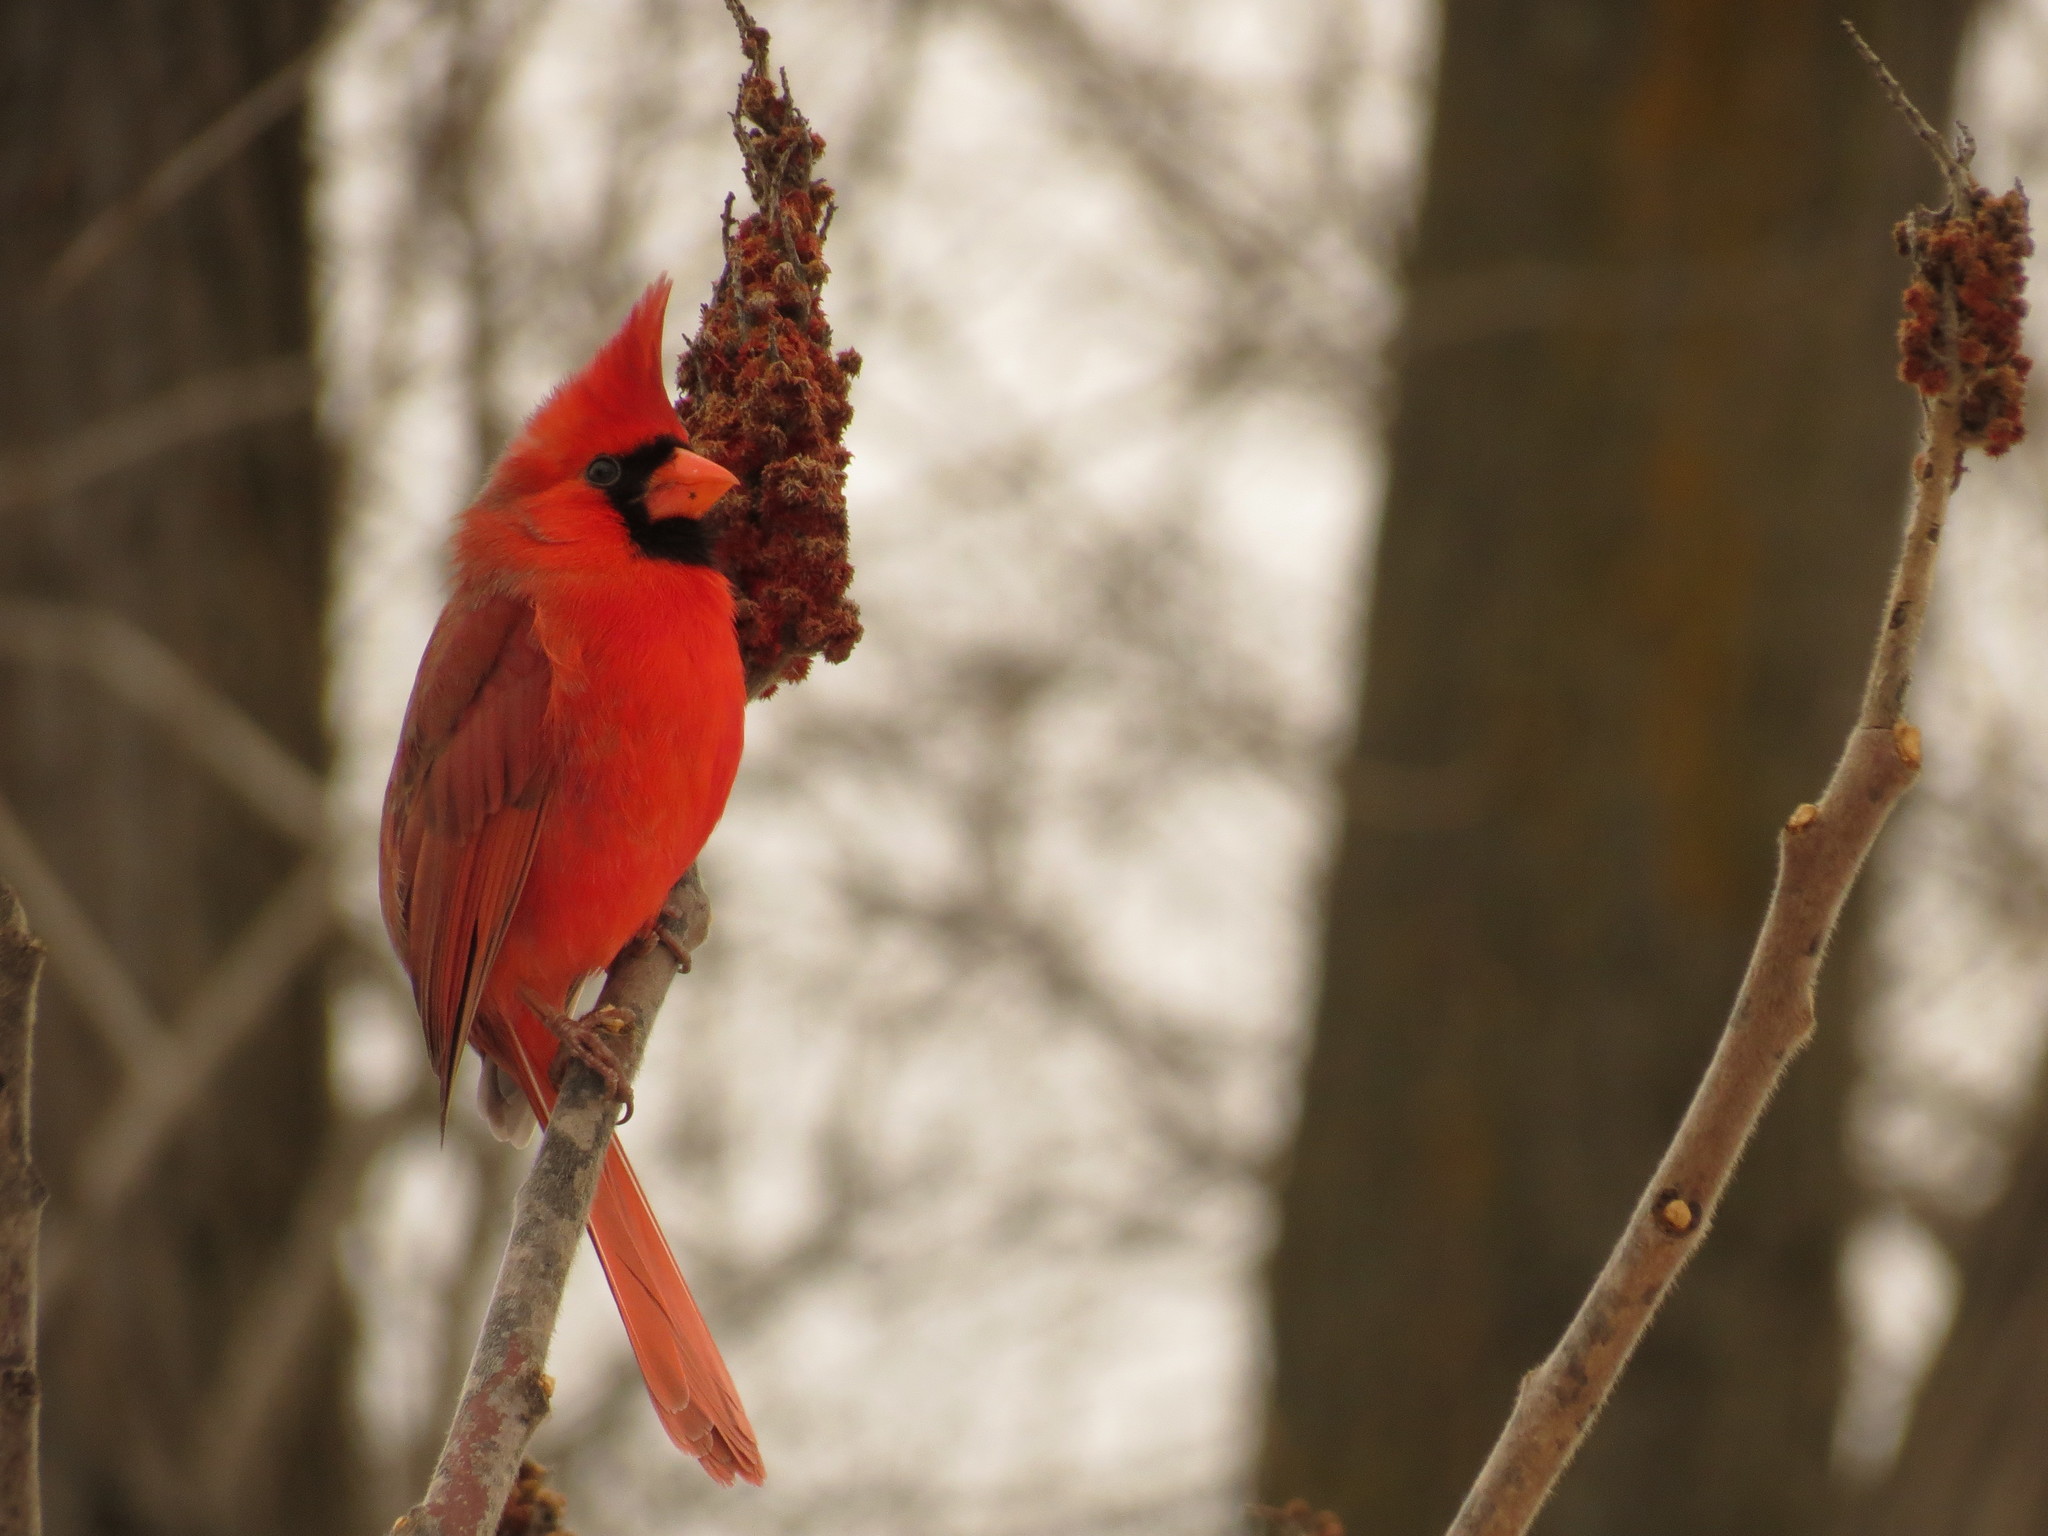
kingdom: Animalia
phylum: Chordata
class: Aves
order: Passeriformes
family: Cardinalidae
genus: Cardinalis
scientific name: Cardinalis cardinalis
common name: Northern cardinal
